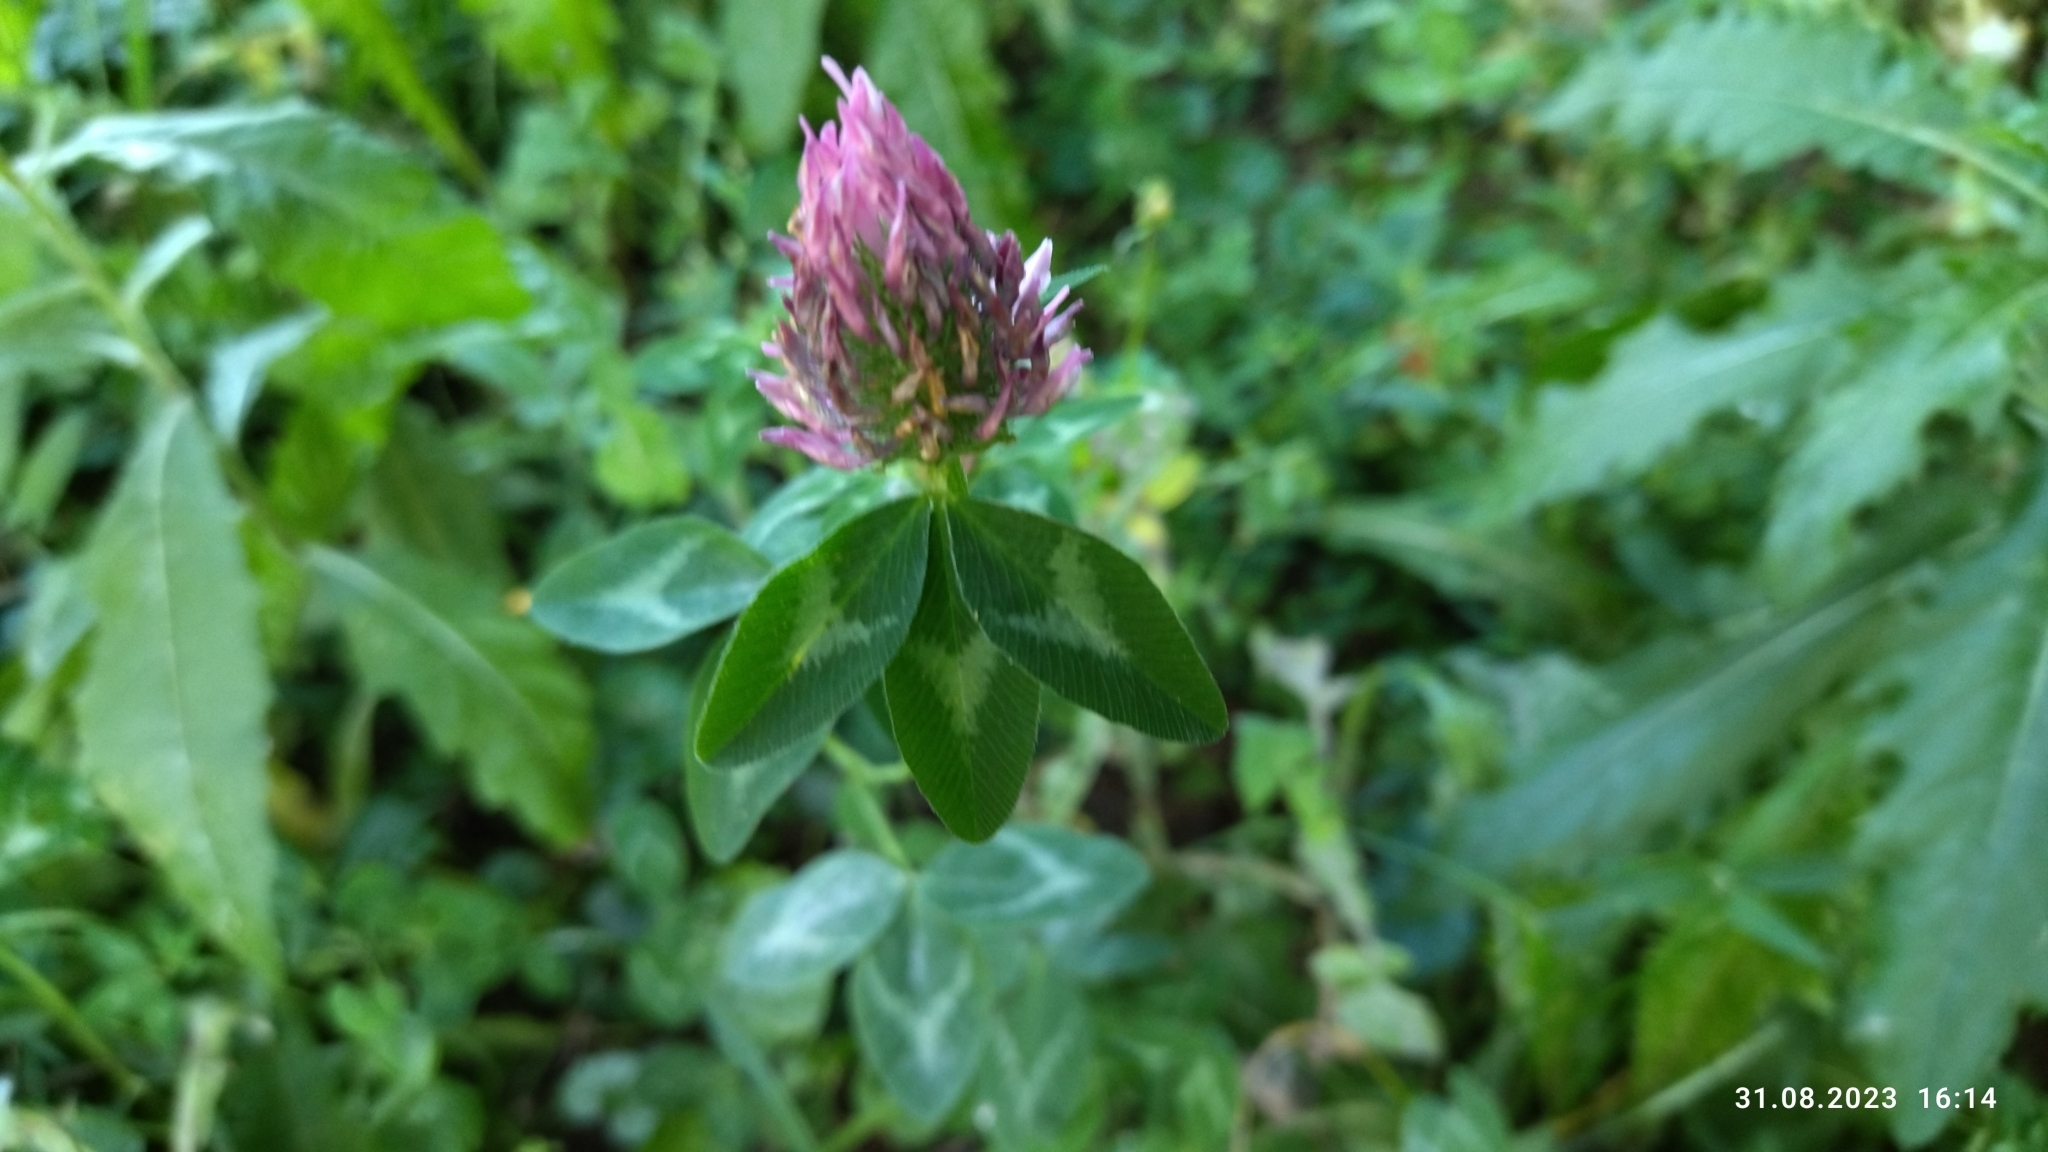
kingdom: Plantae
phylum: Tracheophyta
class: Magnoliopsida
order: Fabales
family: Fabaceae
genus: Trifolium
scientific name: Trifolium pratense
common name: Red clover
